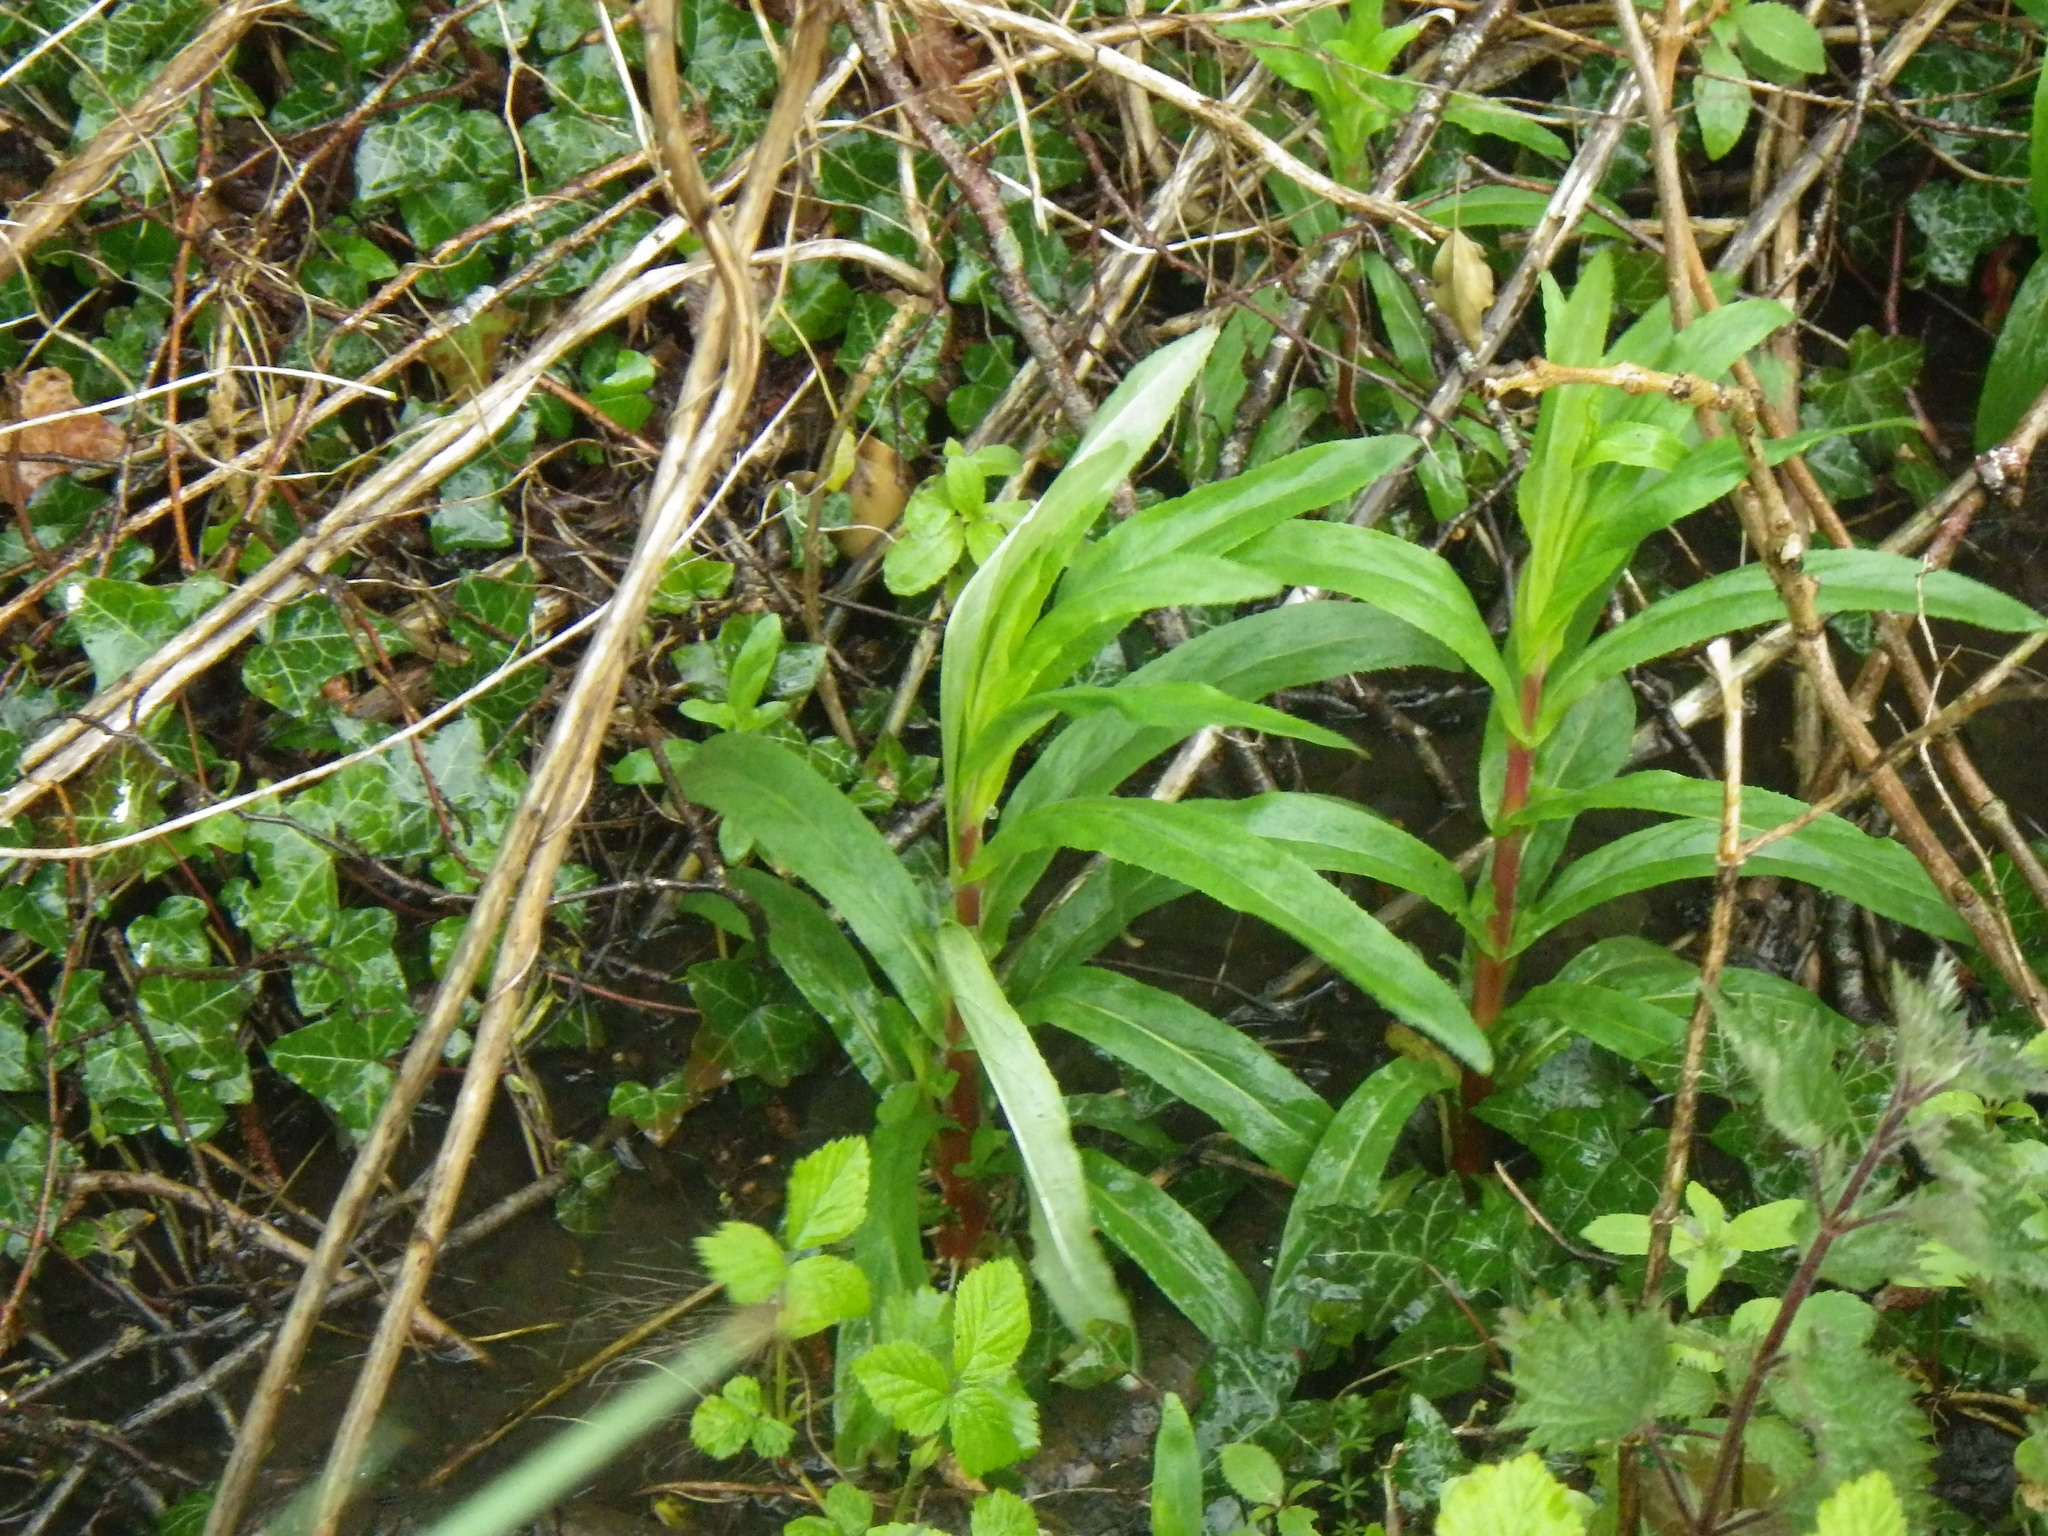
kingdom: Plantae
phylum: Tracheophyta
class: Magnoliopsida
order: Myrtales
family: Onagraceae
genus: Epilobium
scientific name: Epilobium hirsutum
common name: Great willowherb
